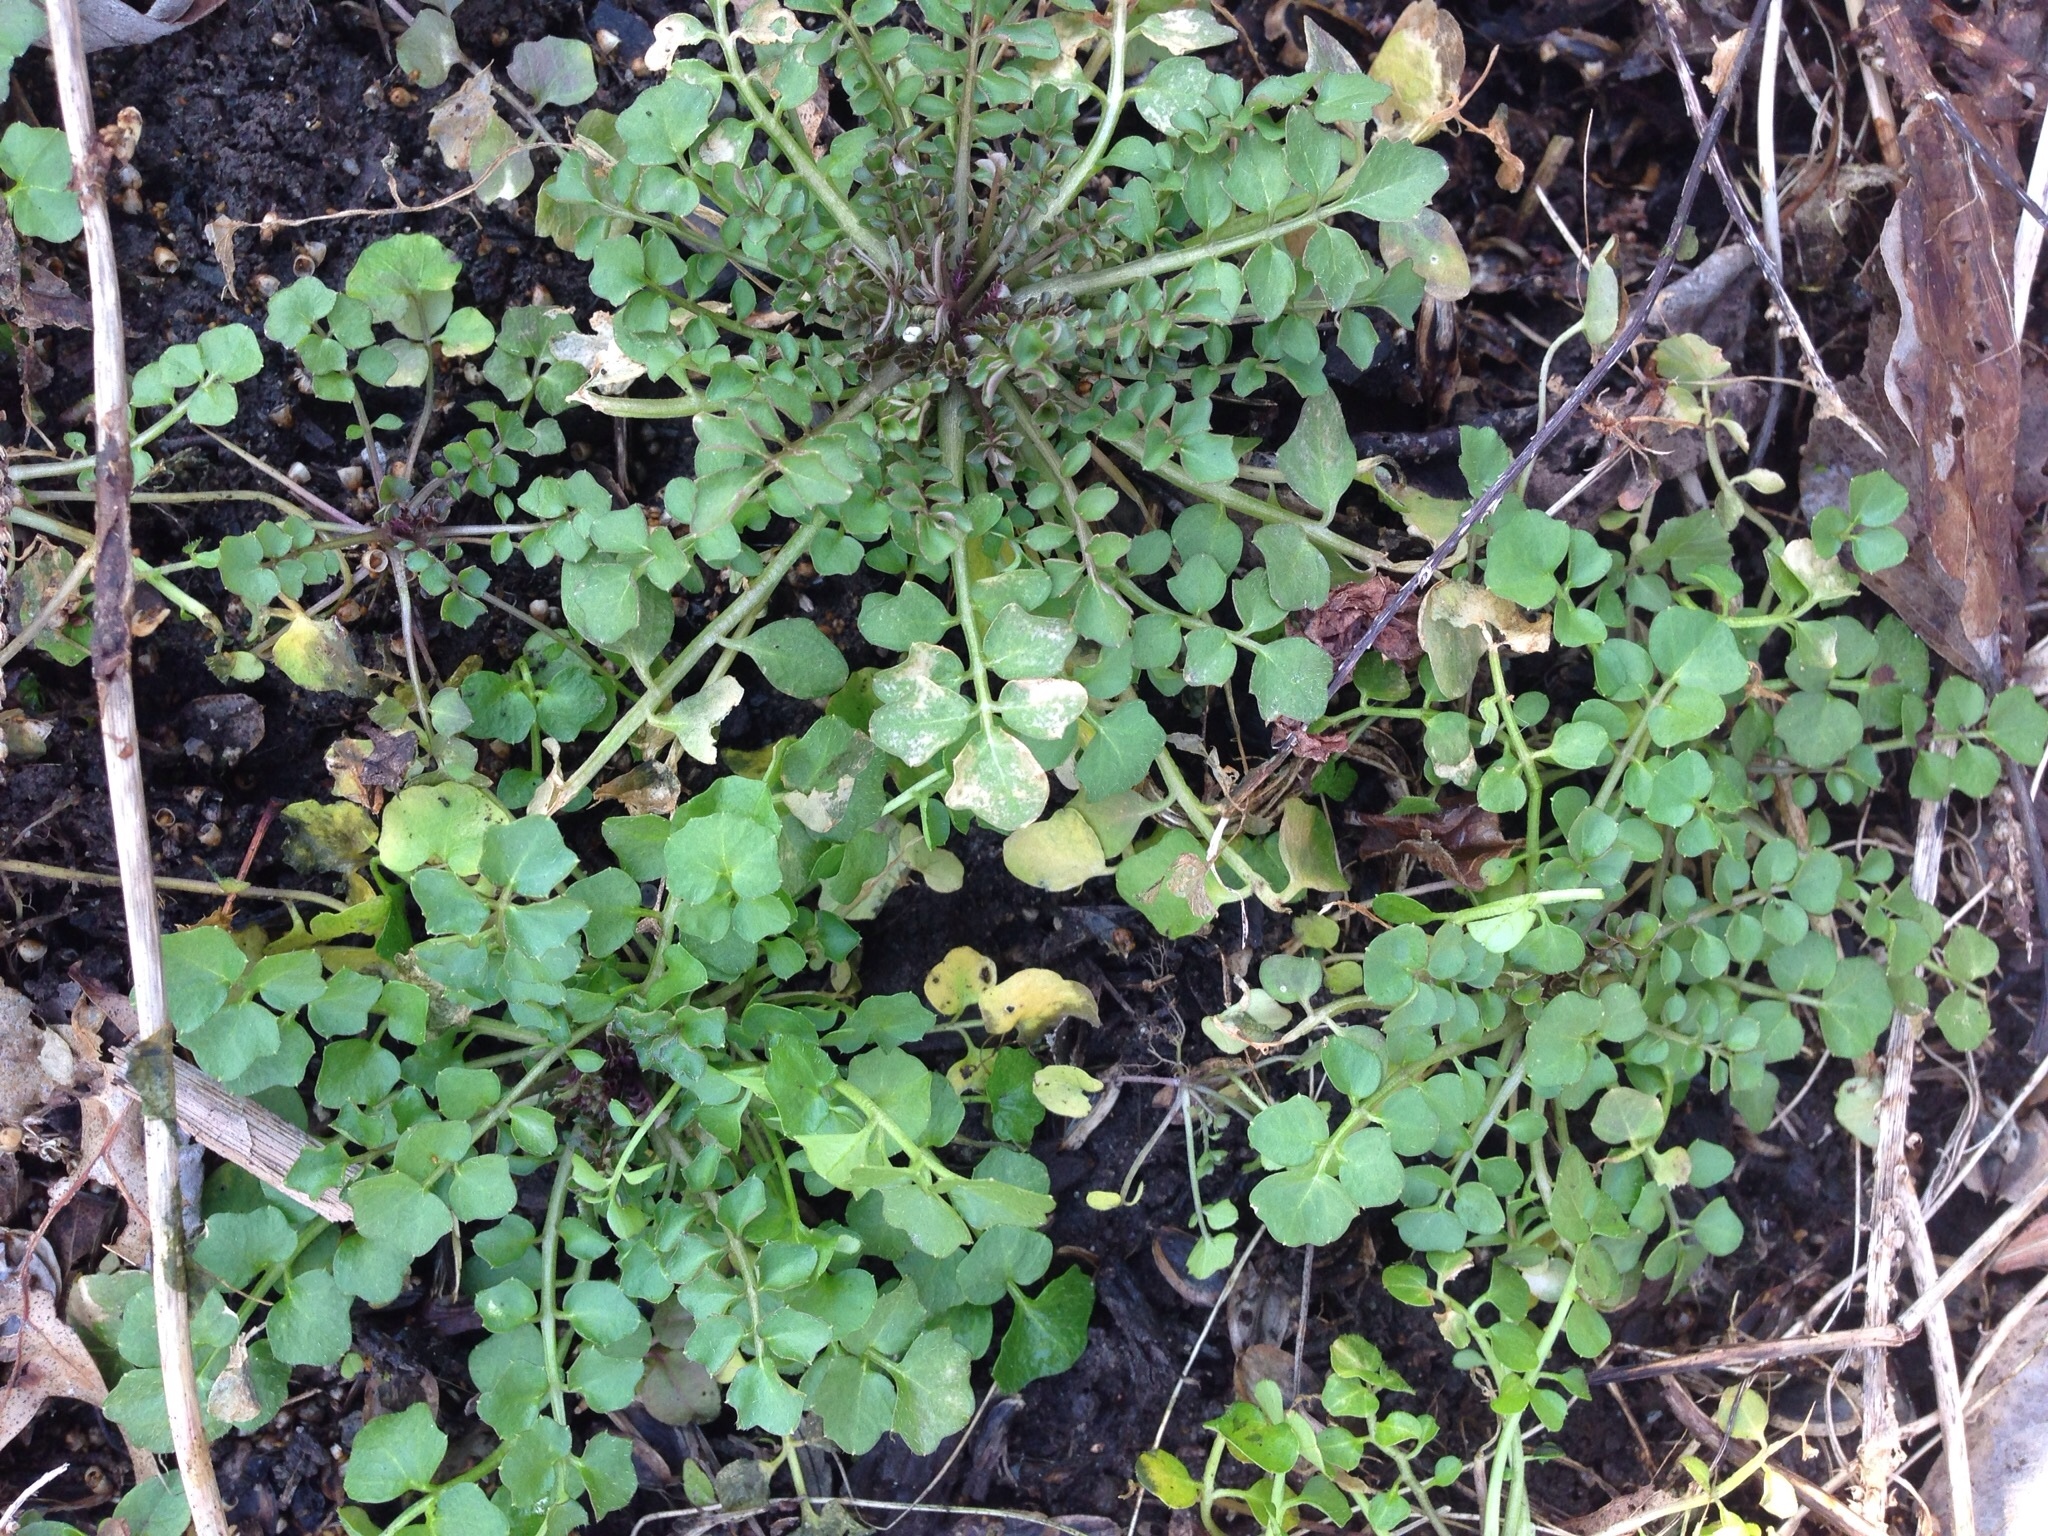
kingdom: Plantae
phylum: Tracheophyta
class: Magnoliopsida
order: Brassicales
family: Brassicaceae
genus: Cardamine
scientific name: Cardamine hirsuta
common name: Hairy bittercress
